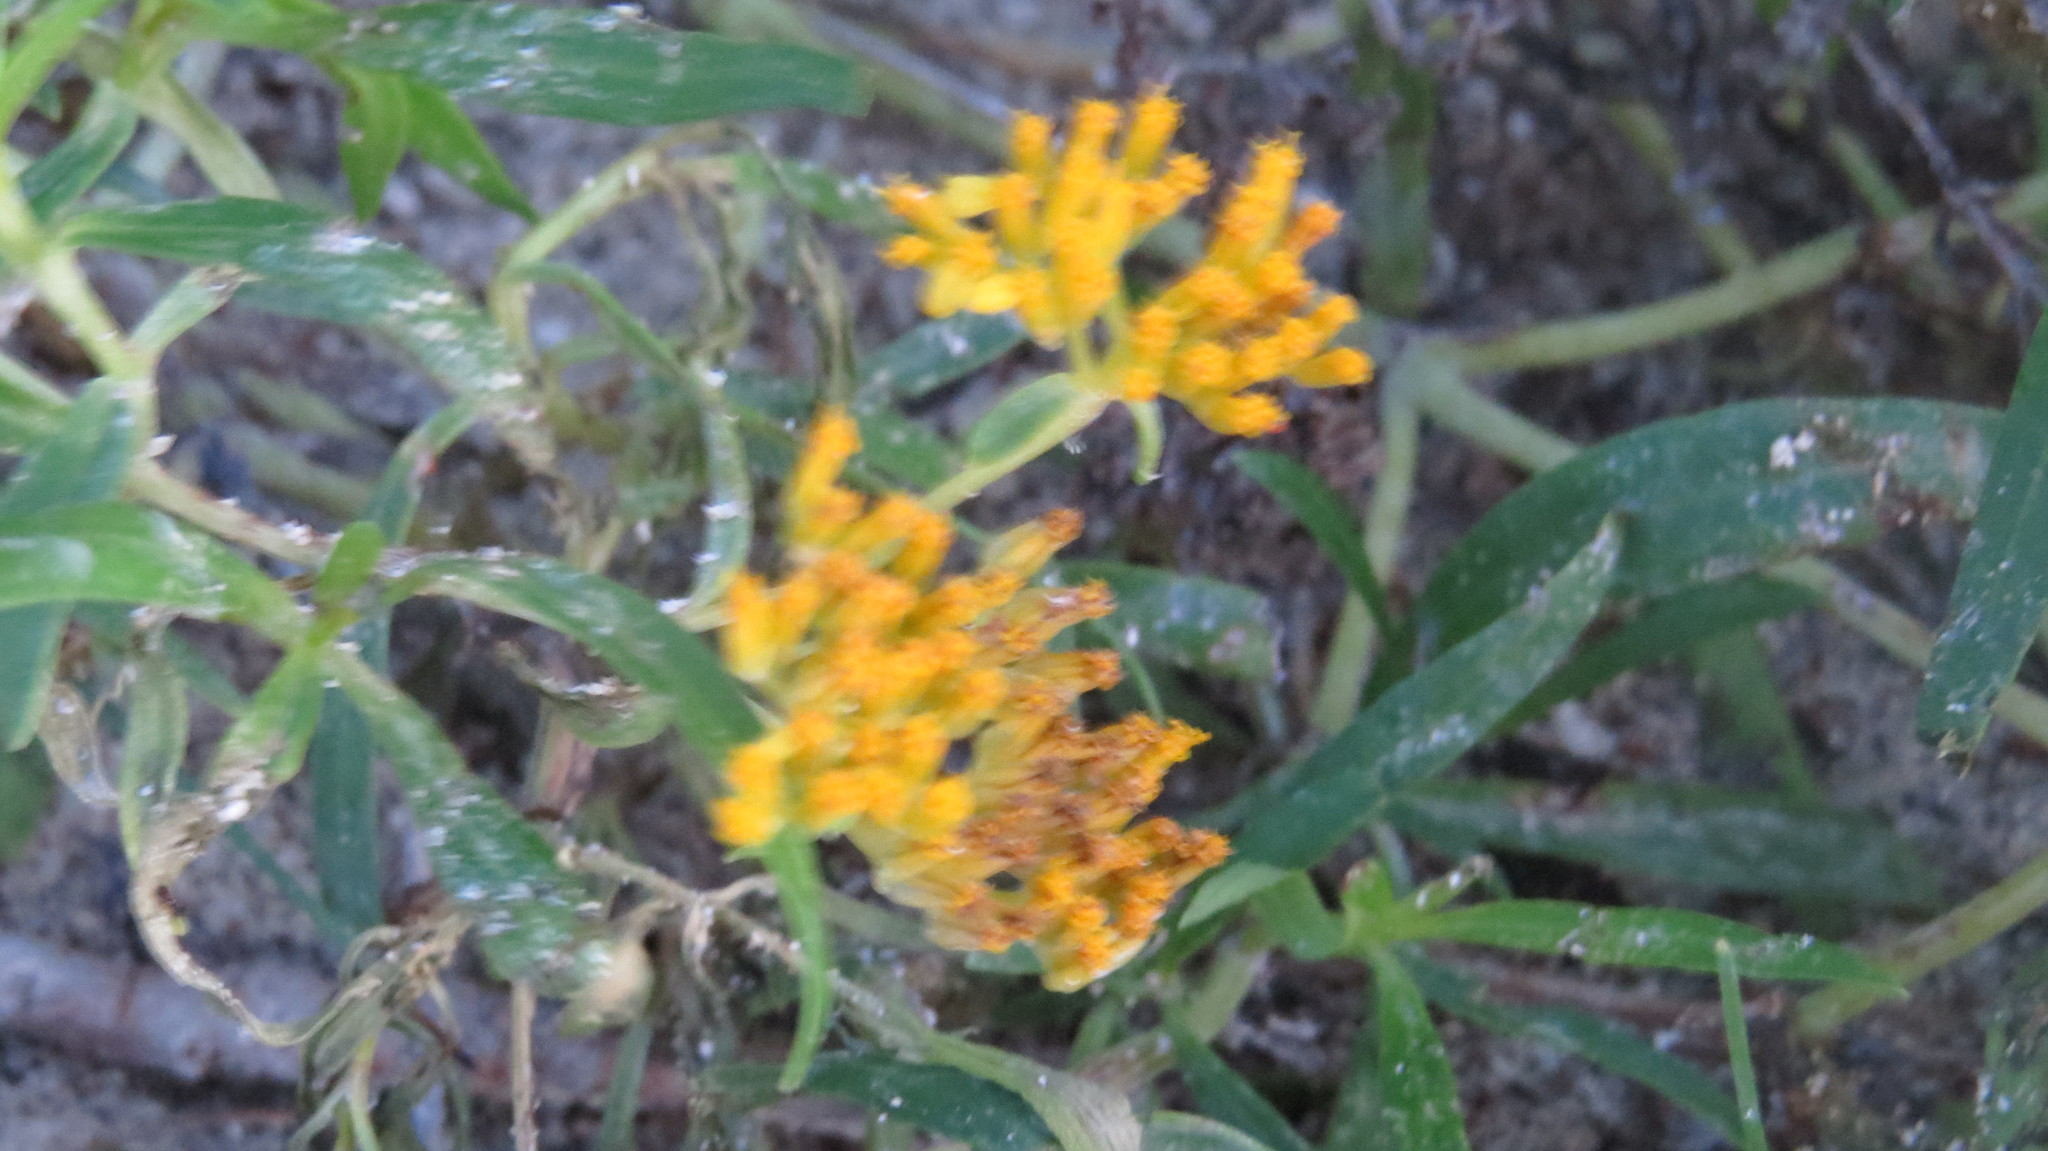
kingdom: Plantae
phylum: Tracheophyta
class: Magnoliopsida
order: Asterales
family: Asteraceae
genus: Flaveria
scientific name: Flaveria linearis
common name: Yellowtop
